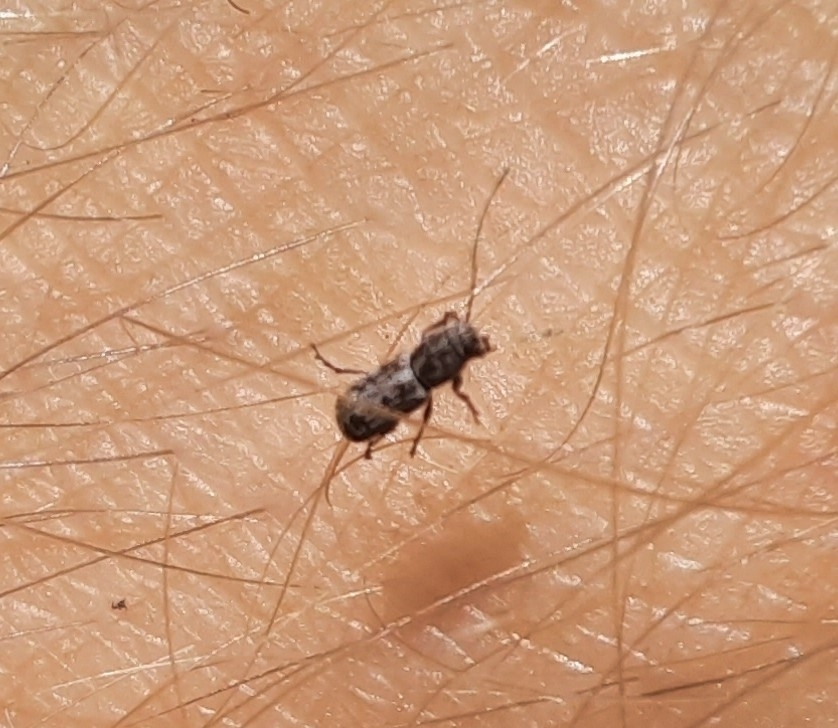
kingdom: Animalia
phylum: Arthropoda
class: Insecta
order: Coleoptera
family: Anthribidae
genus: Euciodes
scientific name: Euciodes suturalis
